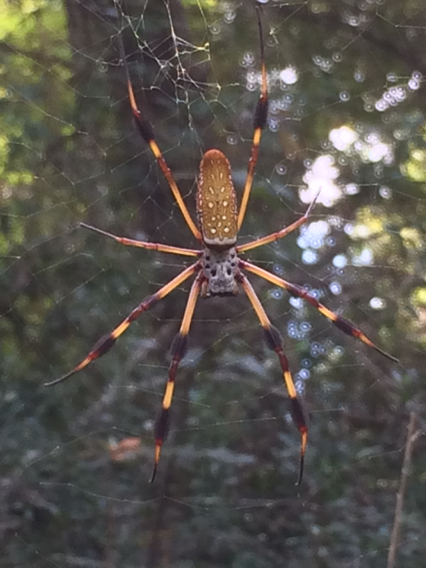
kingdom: Animalia
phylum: Arthropoda
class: Arachnida
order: Araneae
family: Araneidae
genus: Trichonephila
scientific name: Trichonephila clavipes
